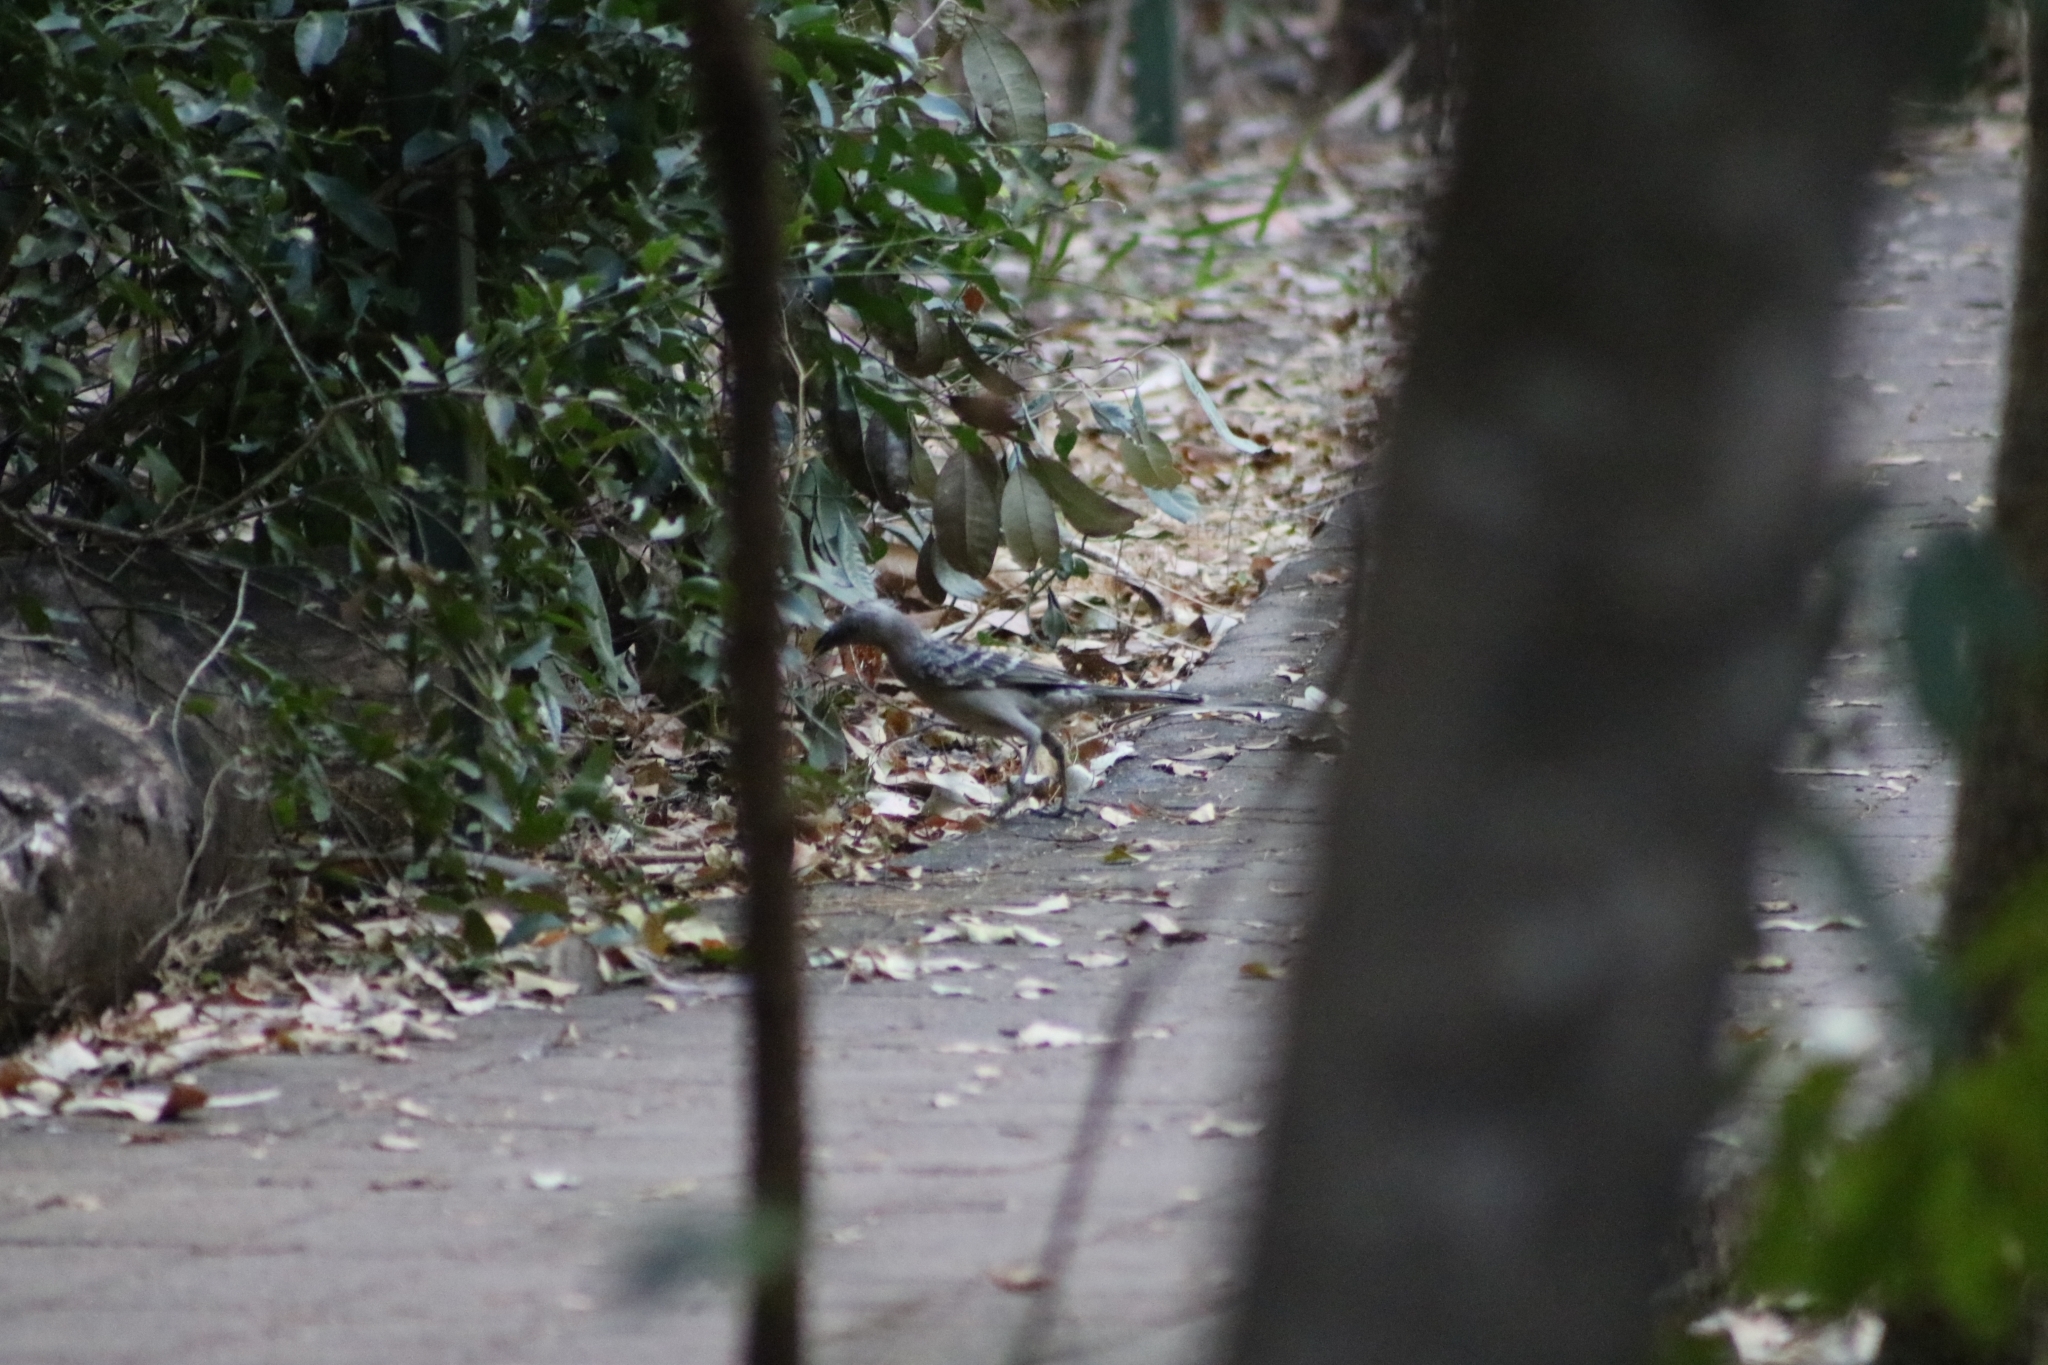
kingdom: Animalia
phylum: Chordata
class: Aves
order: Passeriformes
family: Ptilonorhynchidae
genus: Chlamydera
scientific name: Chlamydera nuchalis
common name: Great bowerbird
